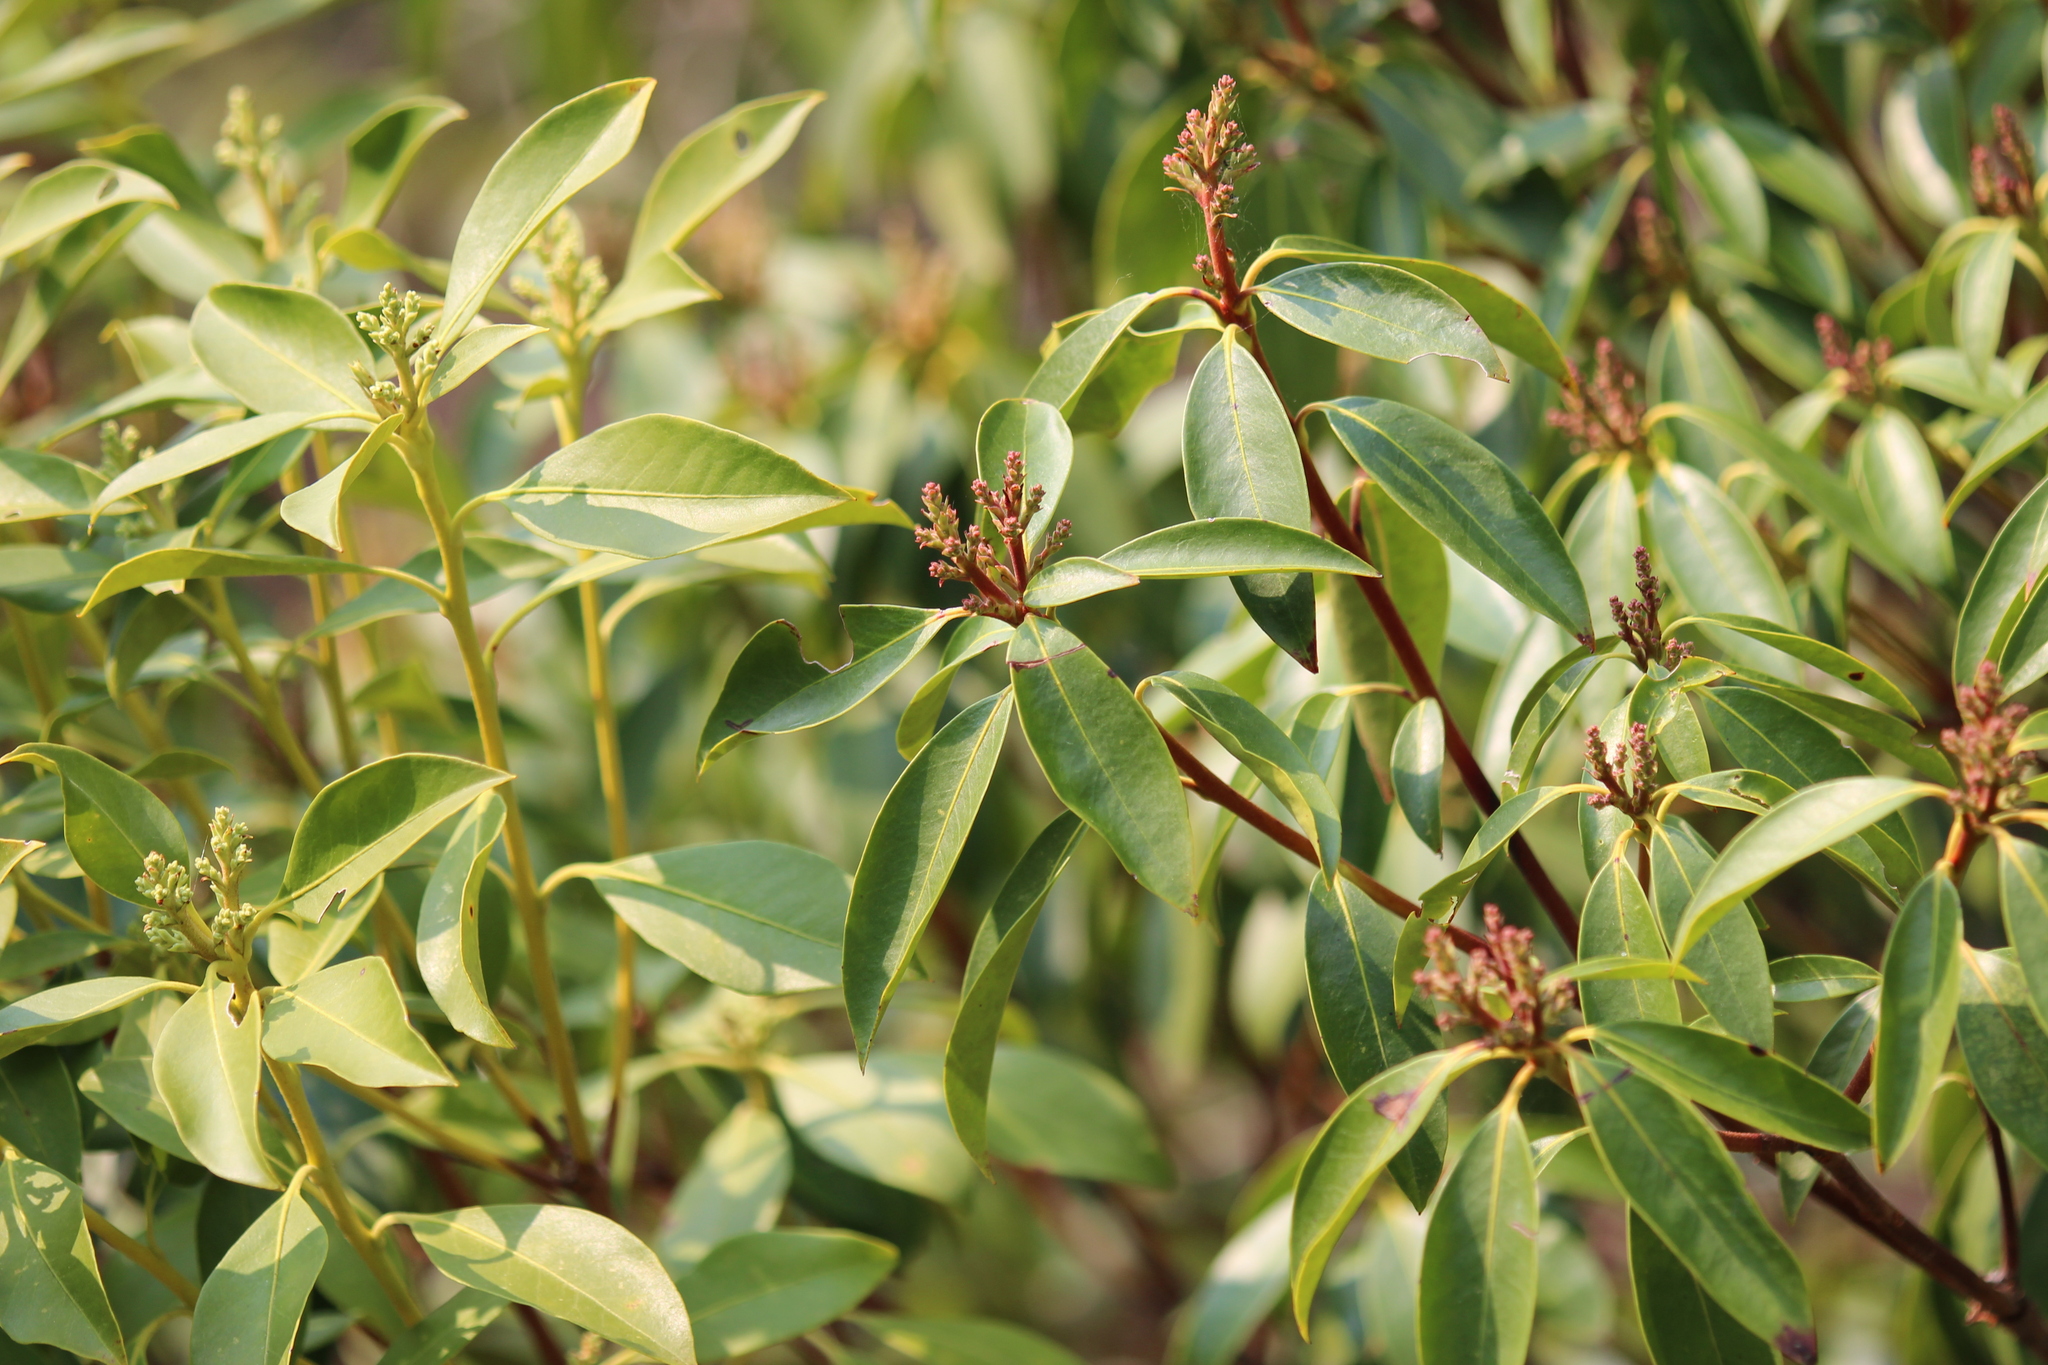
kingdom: Plantae
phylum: Tracheophyta
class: Magnoliopsida
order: Ericales
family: Ericaceae
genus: Kalmia
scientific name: Kalmia latifolia
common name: Mountain-laurel
